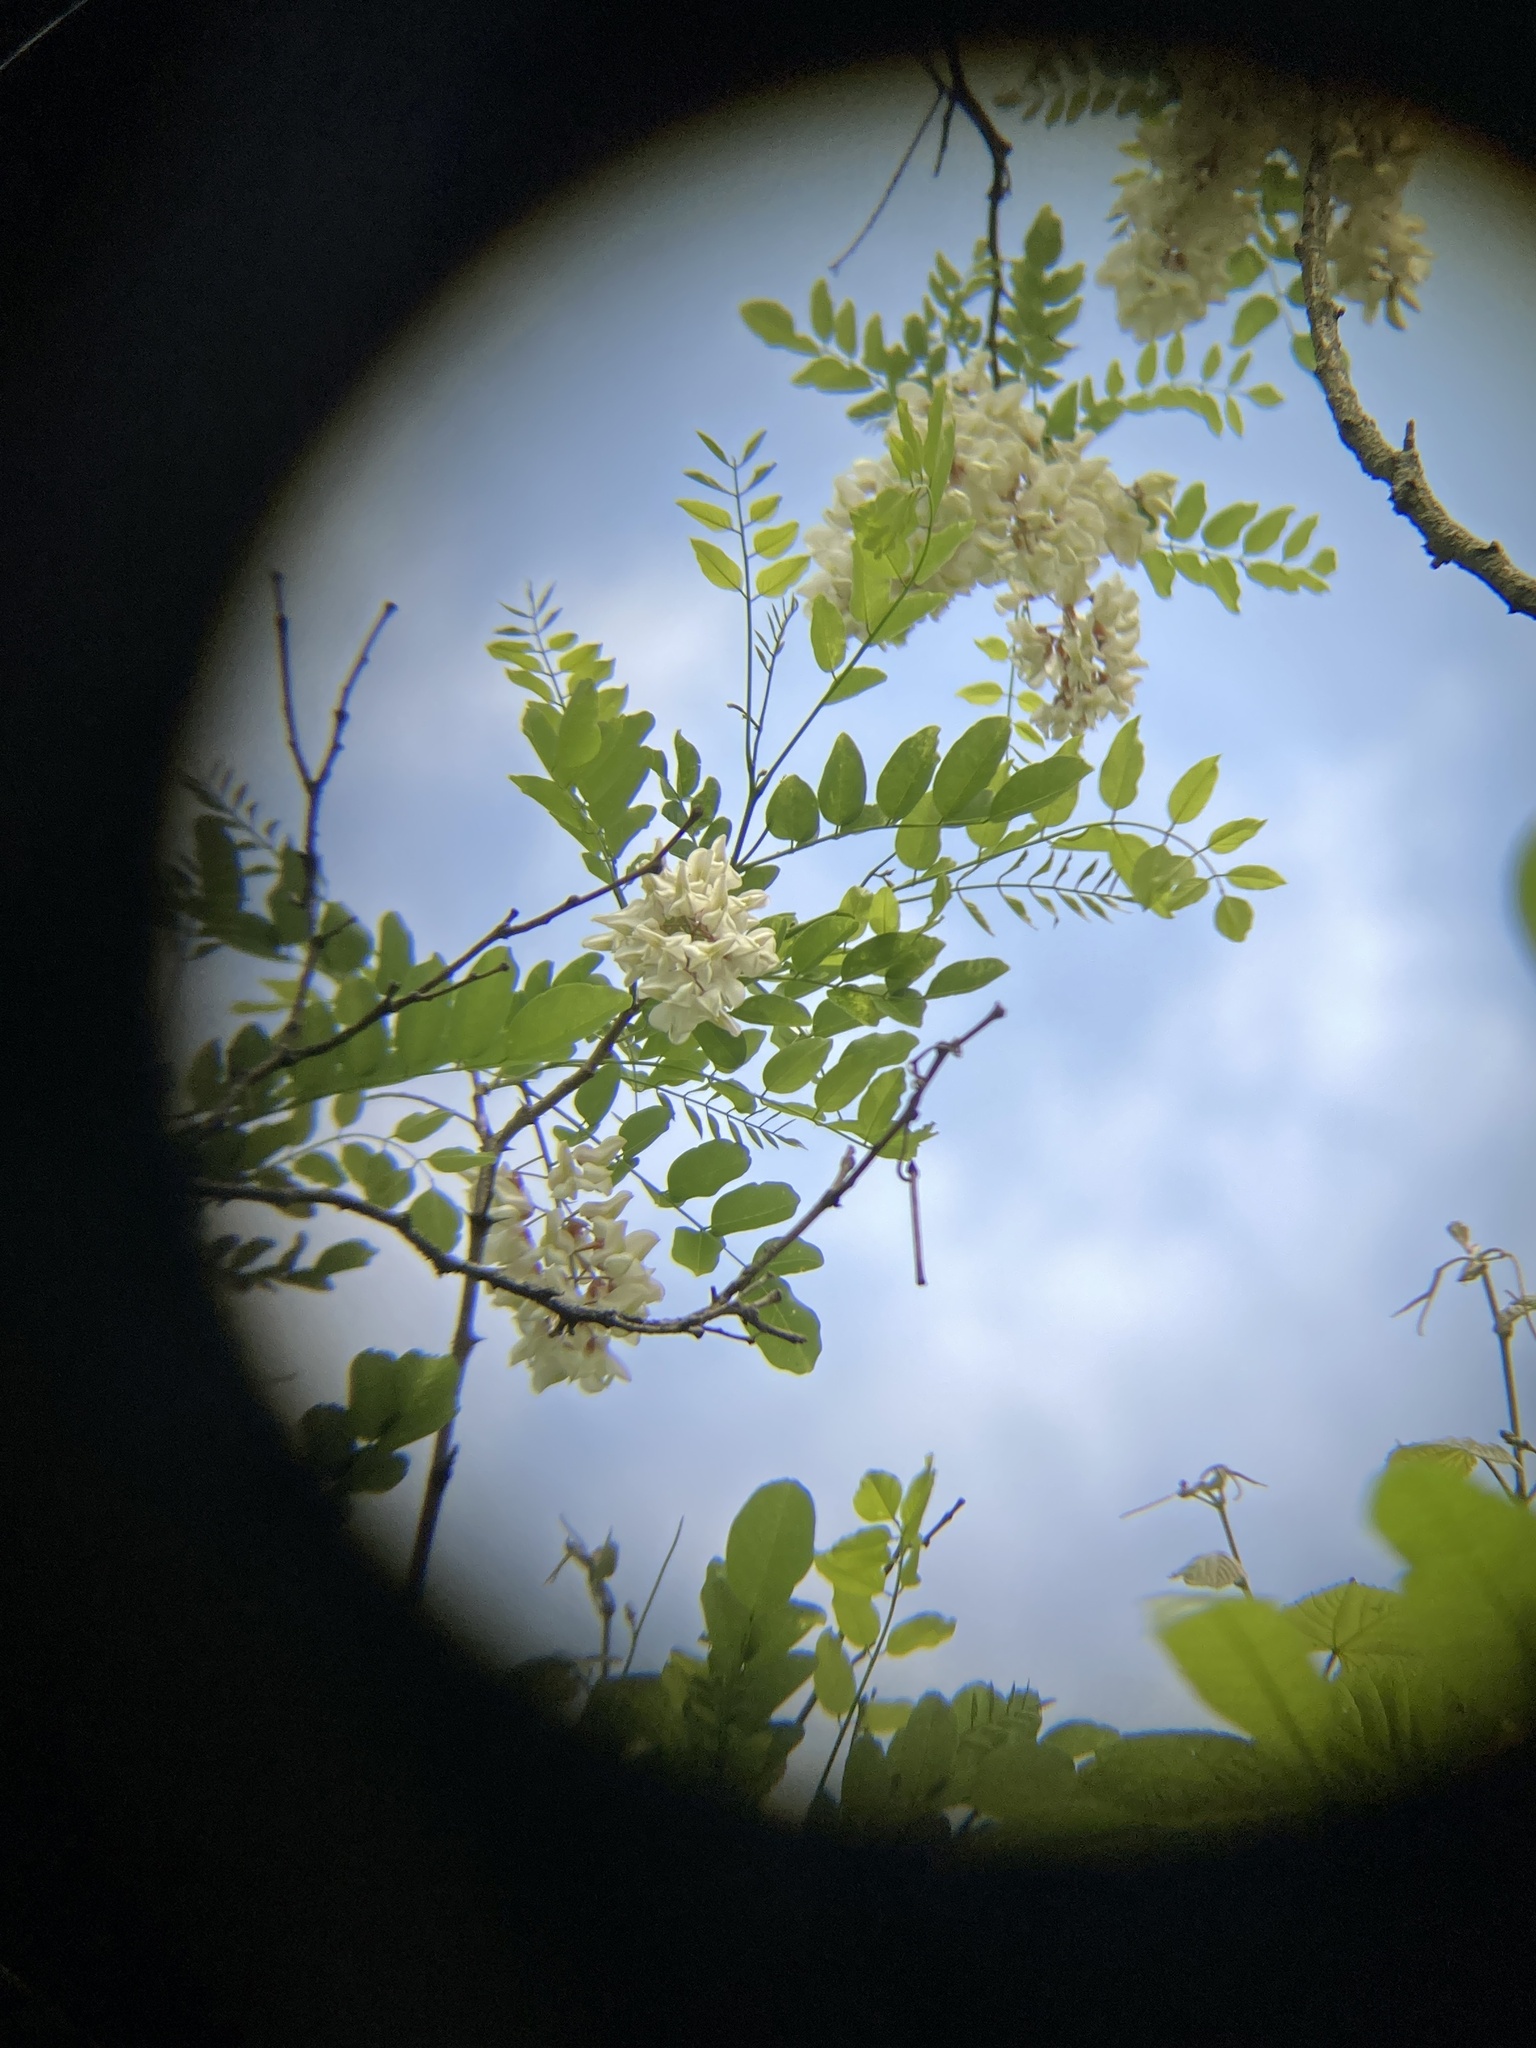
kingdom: Plantae
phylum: Tracheophyta
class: Magnoliopsida
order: Fabales
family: Fabaceae
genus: Robinia
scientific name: Robinia pseudoacacia
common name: Black locust
